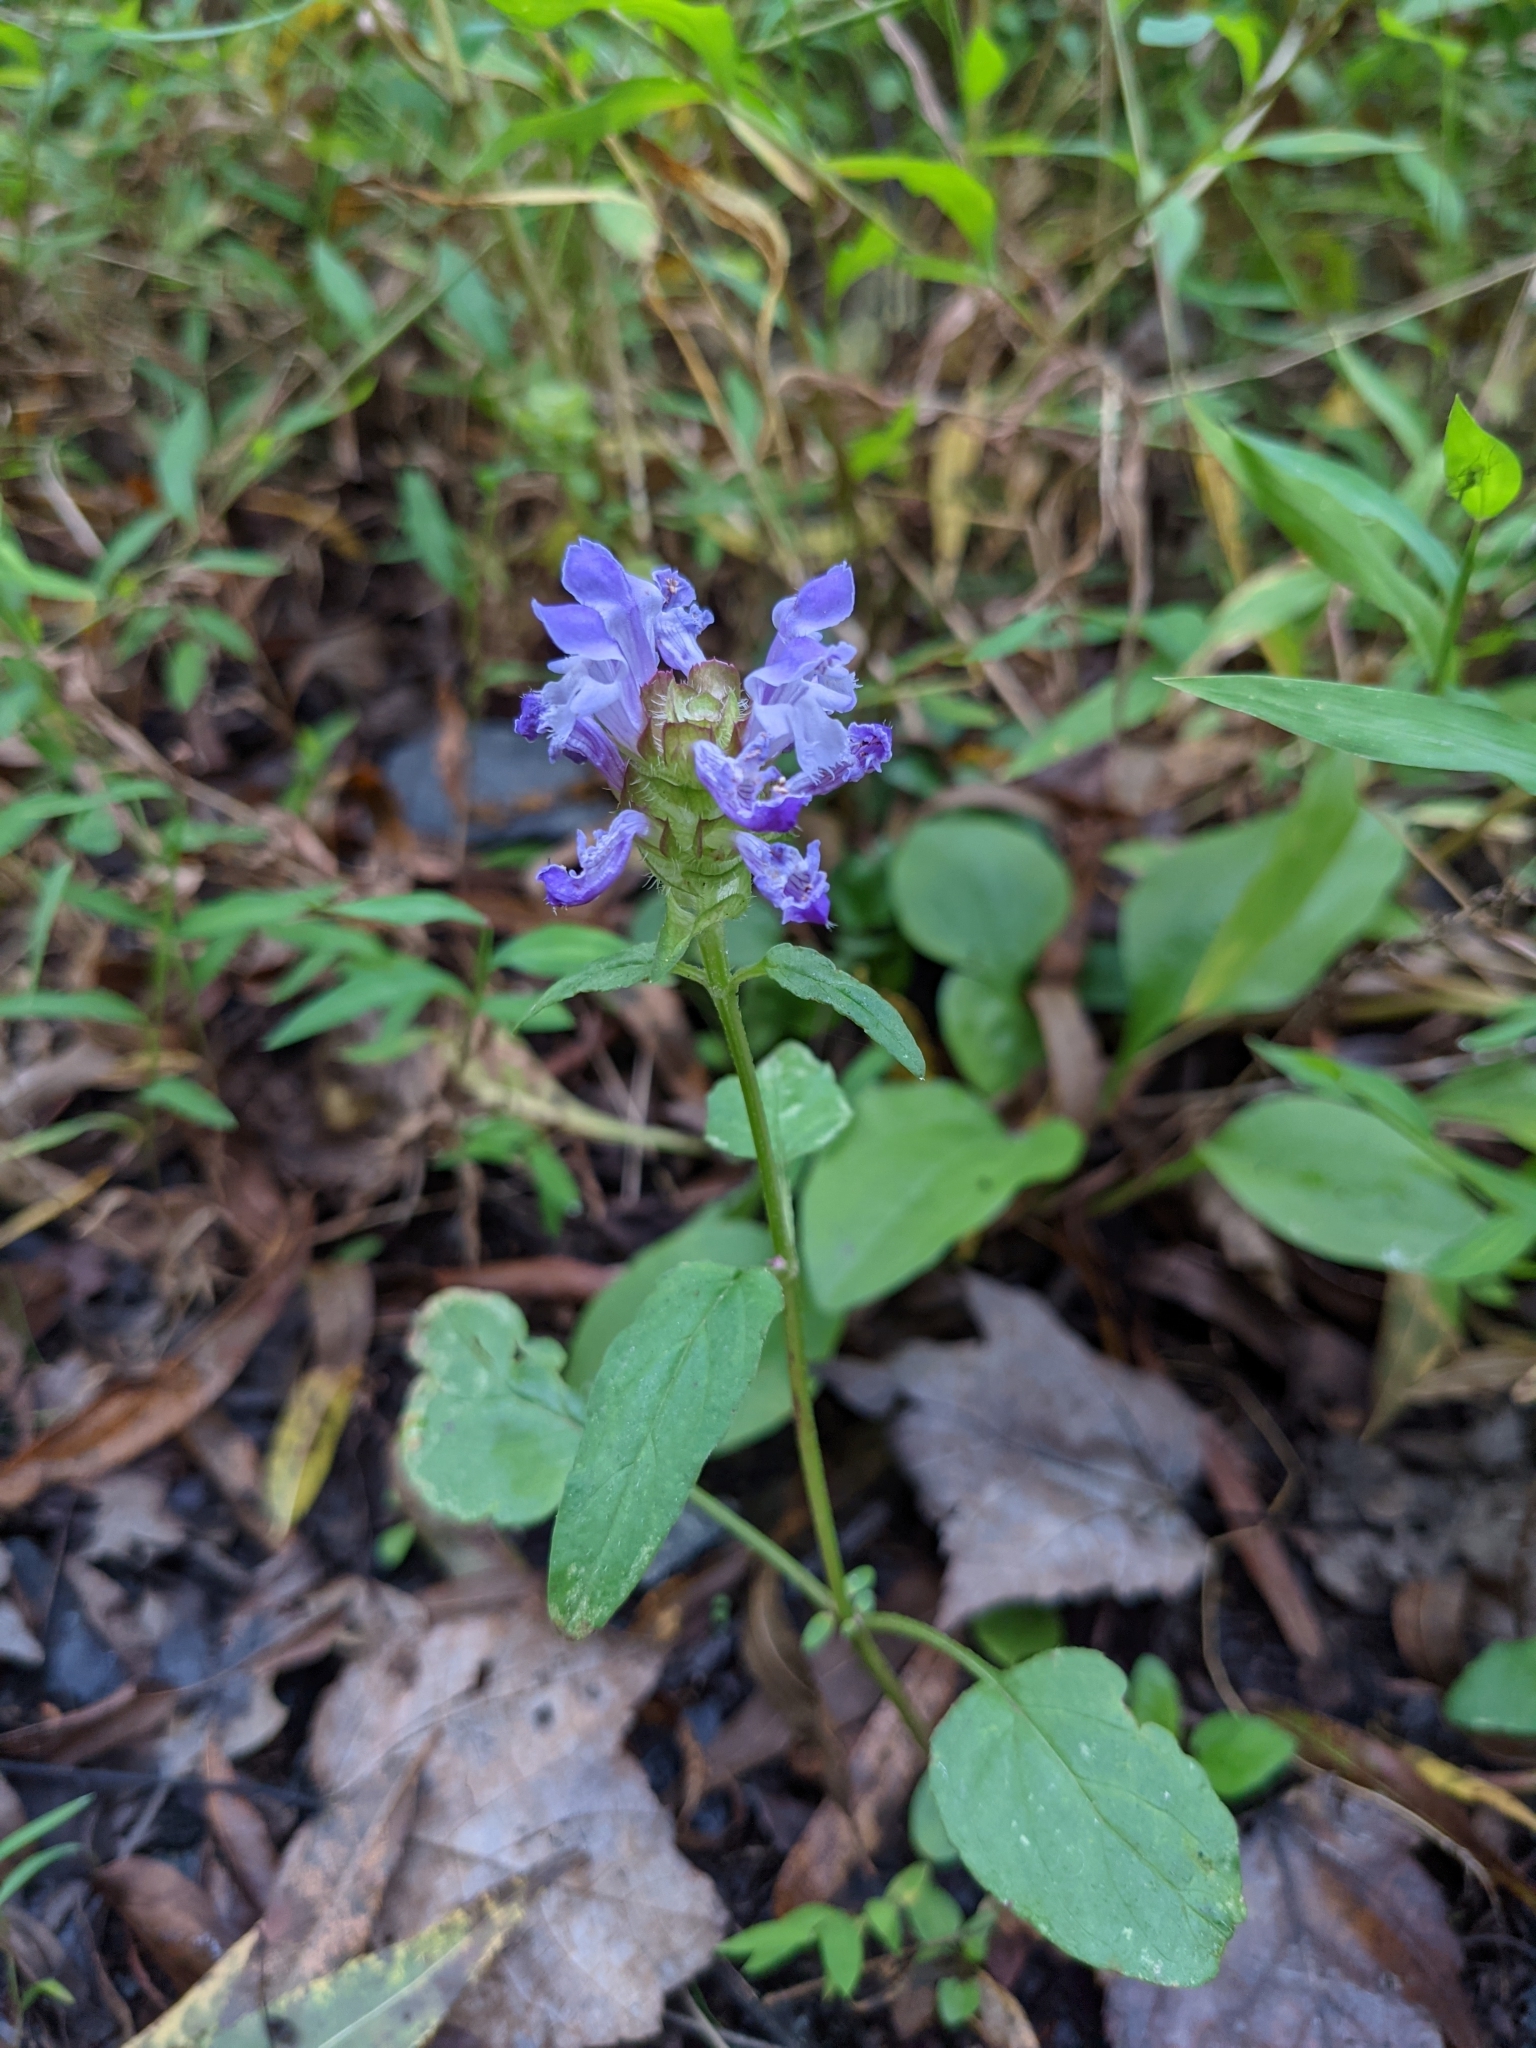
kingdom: Plantae
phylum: Tracheophyta
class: Magnoliopsida
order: Lamiales
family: Lamiaceae
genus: Prunella
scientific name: Prunella vulgaris
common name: Heal-all
